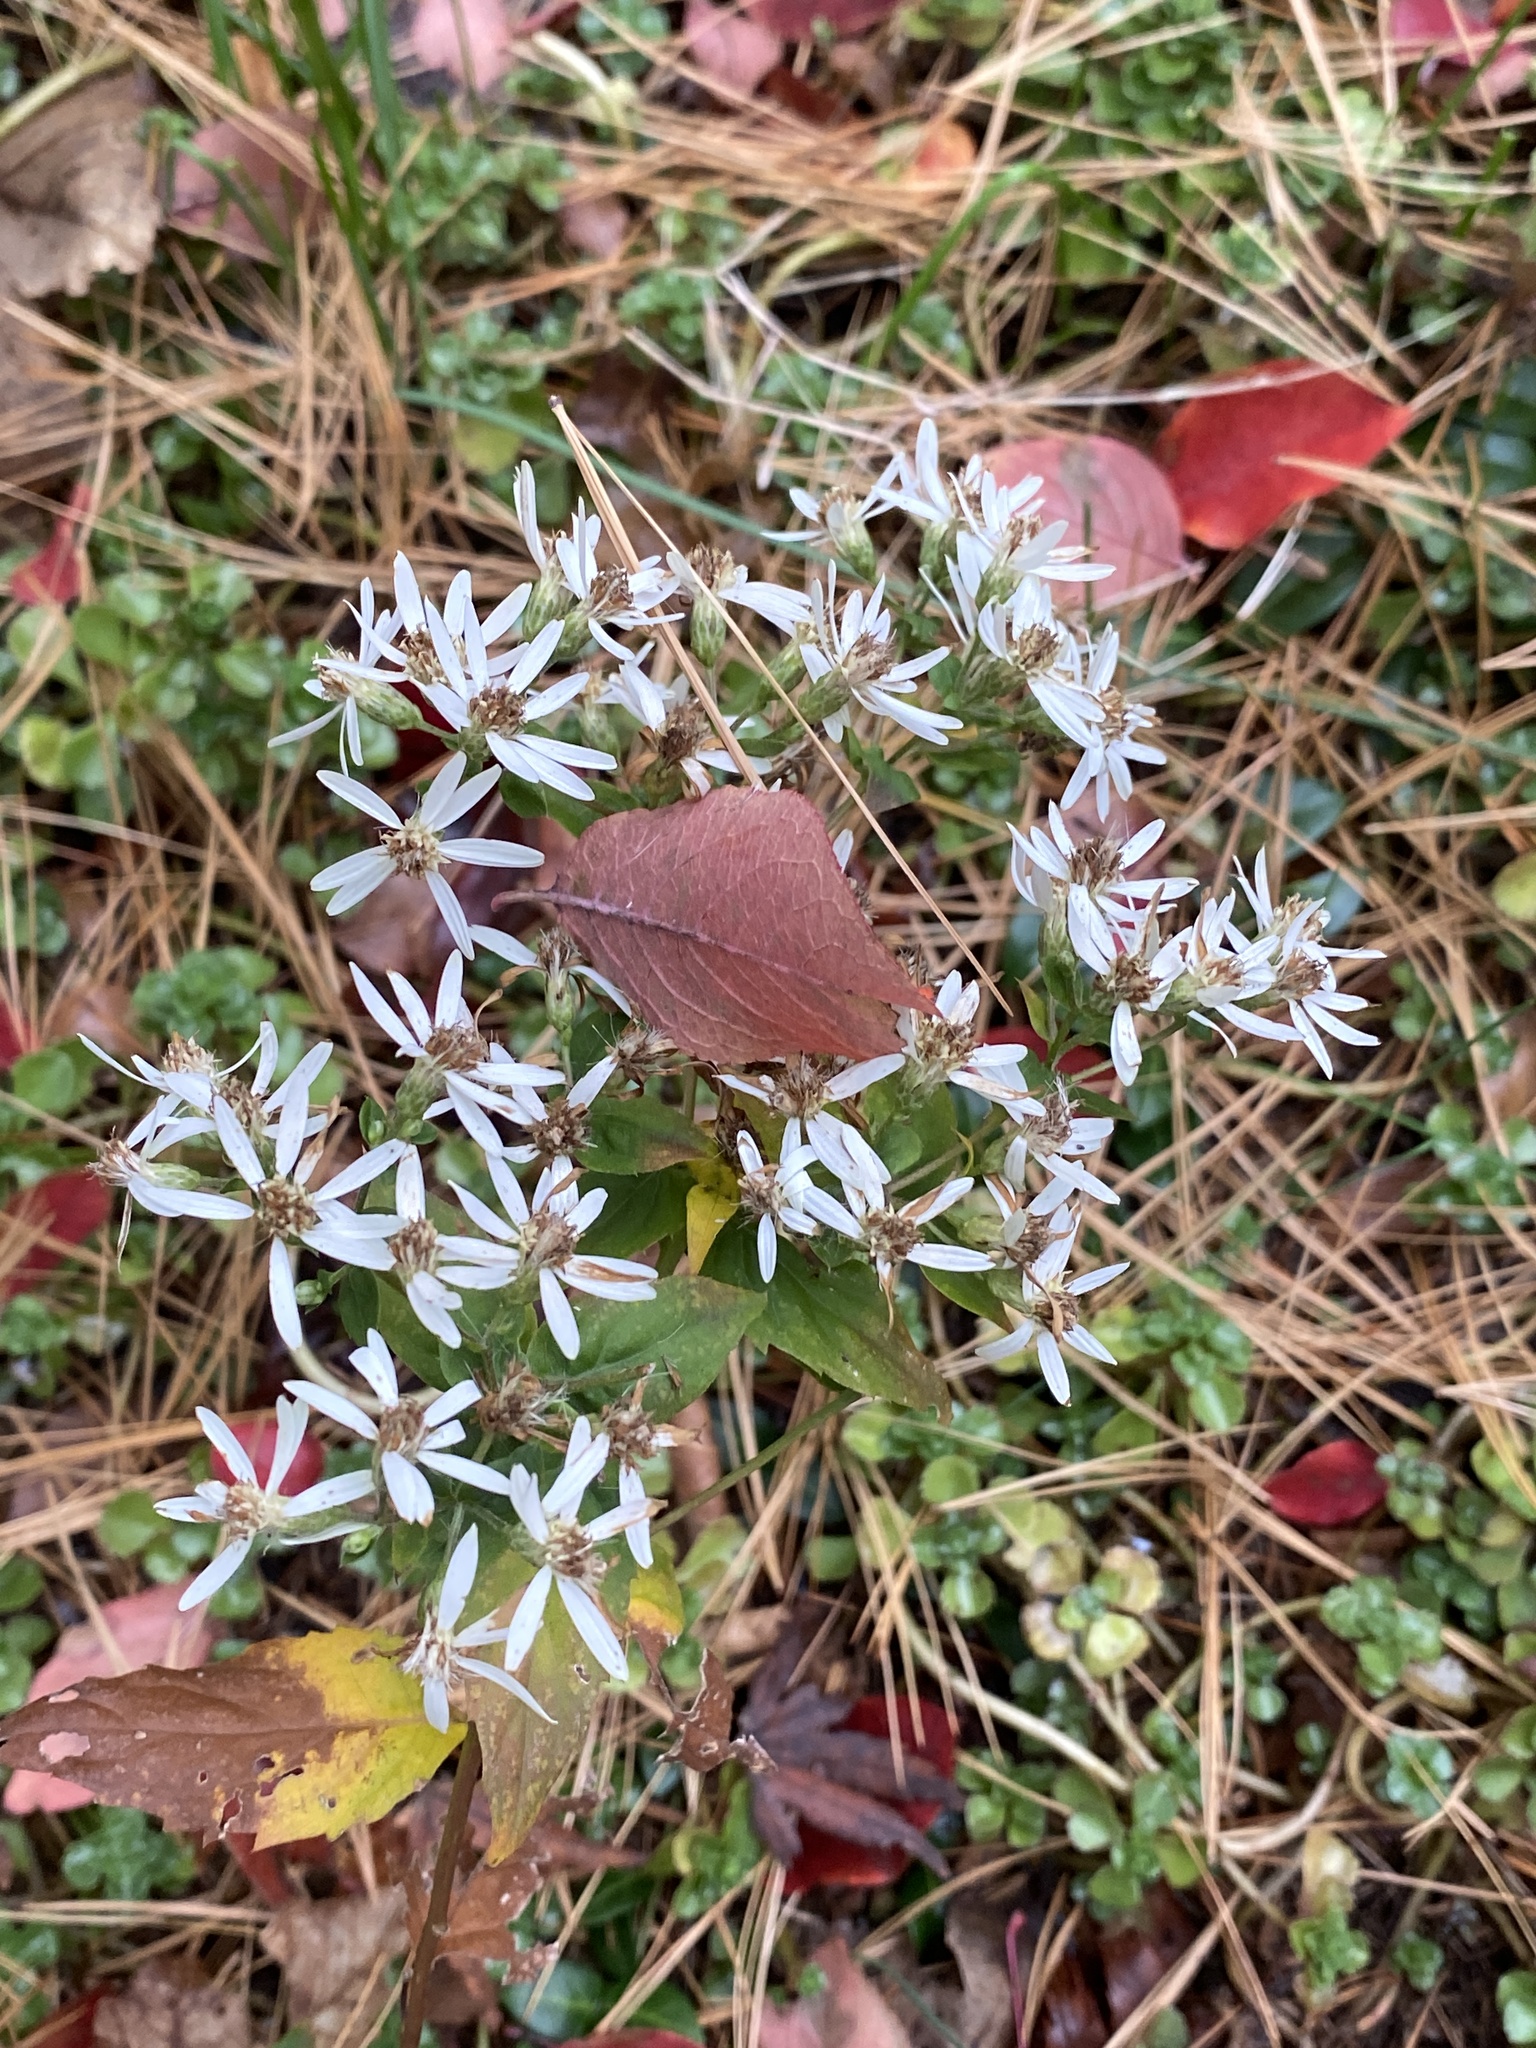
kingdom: Plantae
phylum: Tracheophyta
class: Magnoliopsida
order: Asterales
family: Asteraceae
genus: Eurybia
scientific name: Eurybia divaricata
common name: White wood aster
